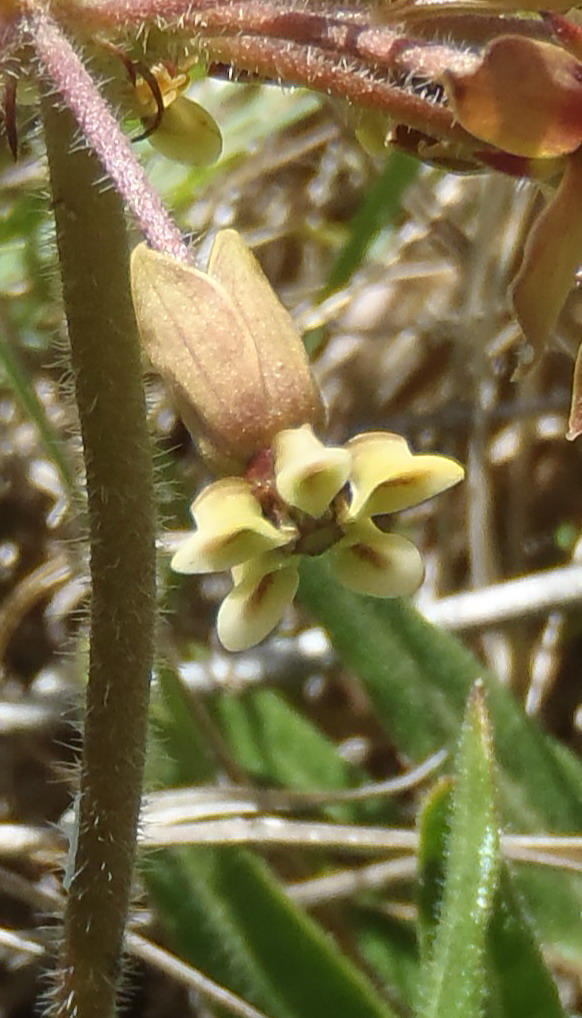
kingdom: Plantae
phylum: Tracheophyta
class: Magnoliopsida
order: Gentianales
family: Apocynaceae
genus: Asclepias
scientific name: Asclepias crispa
